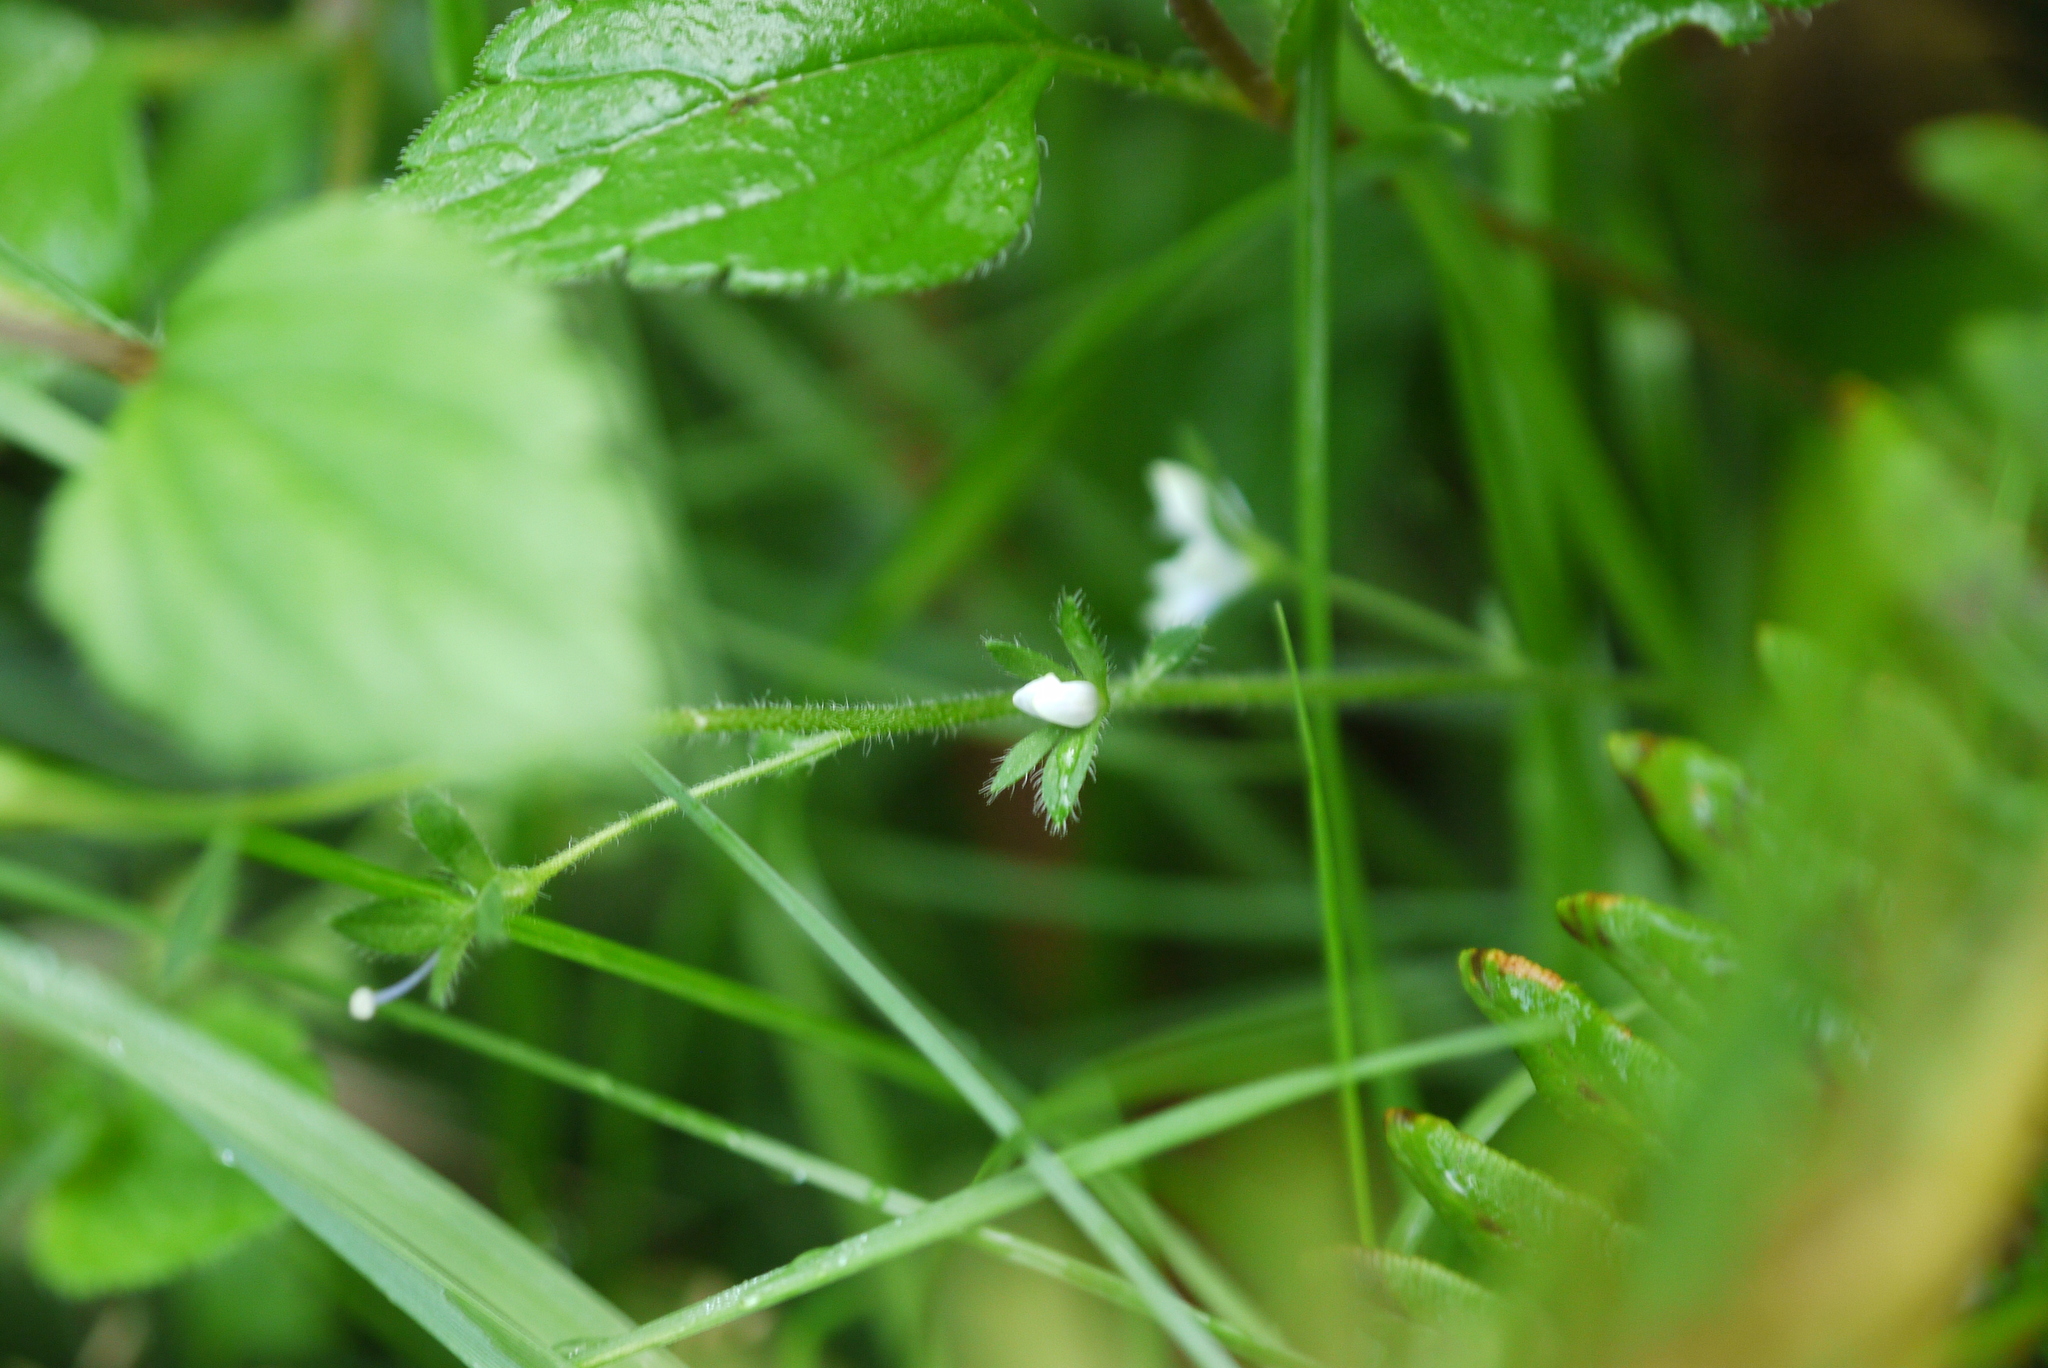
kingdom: Plantae
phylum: Tracheophyta
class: Magnoliopsida
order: Lamiales
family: Plantaginaceae
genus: Veronica
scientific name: Veronica montana
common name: Wood speedwell
